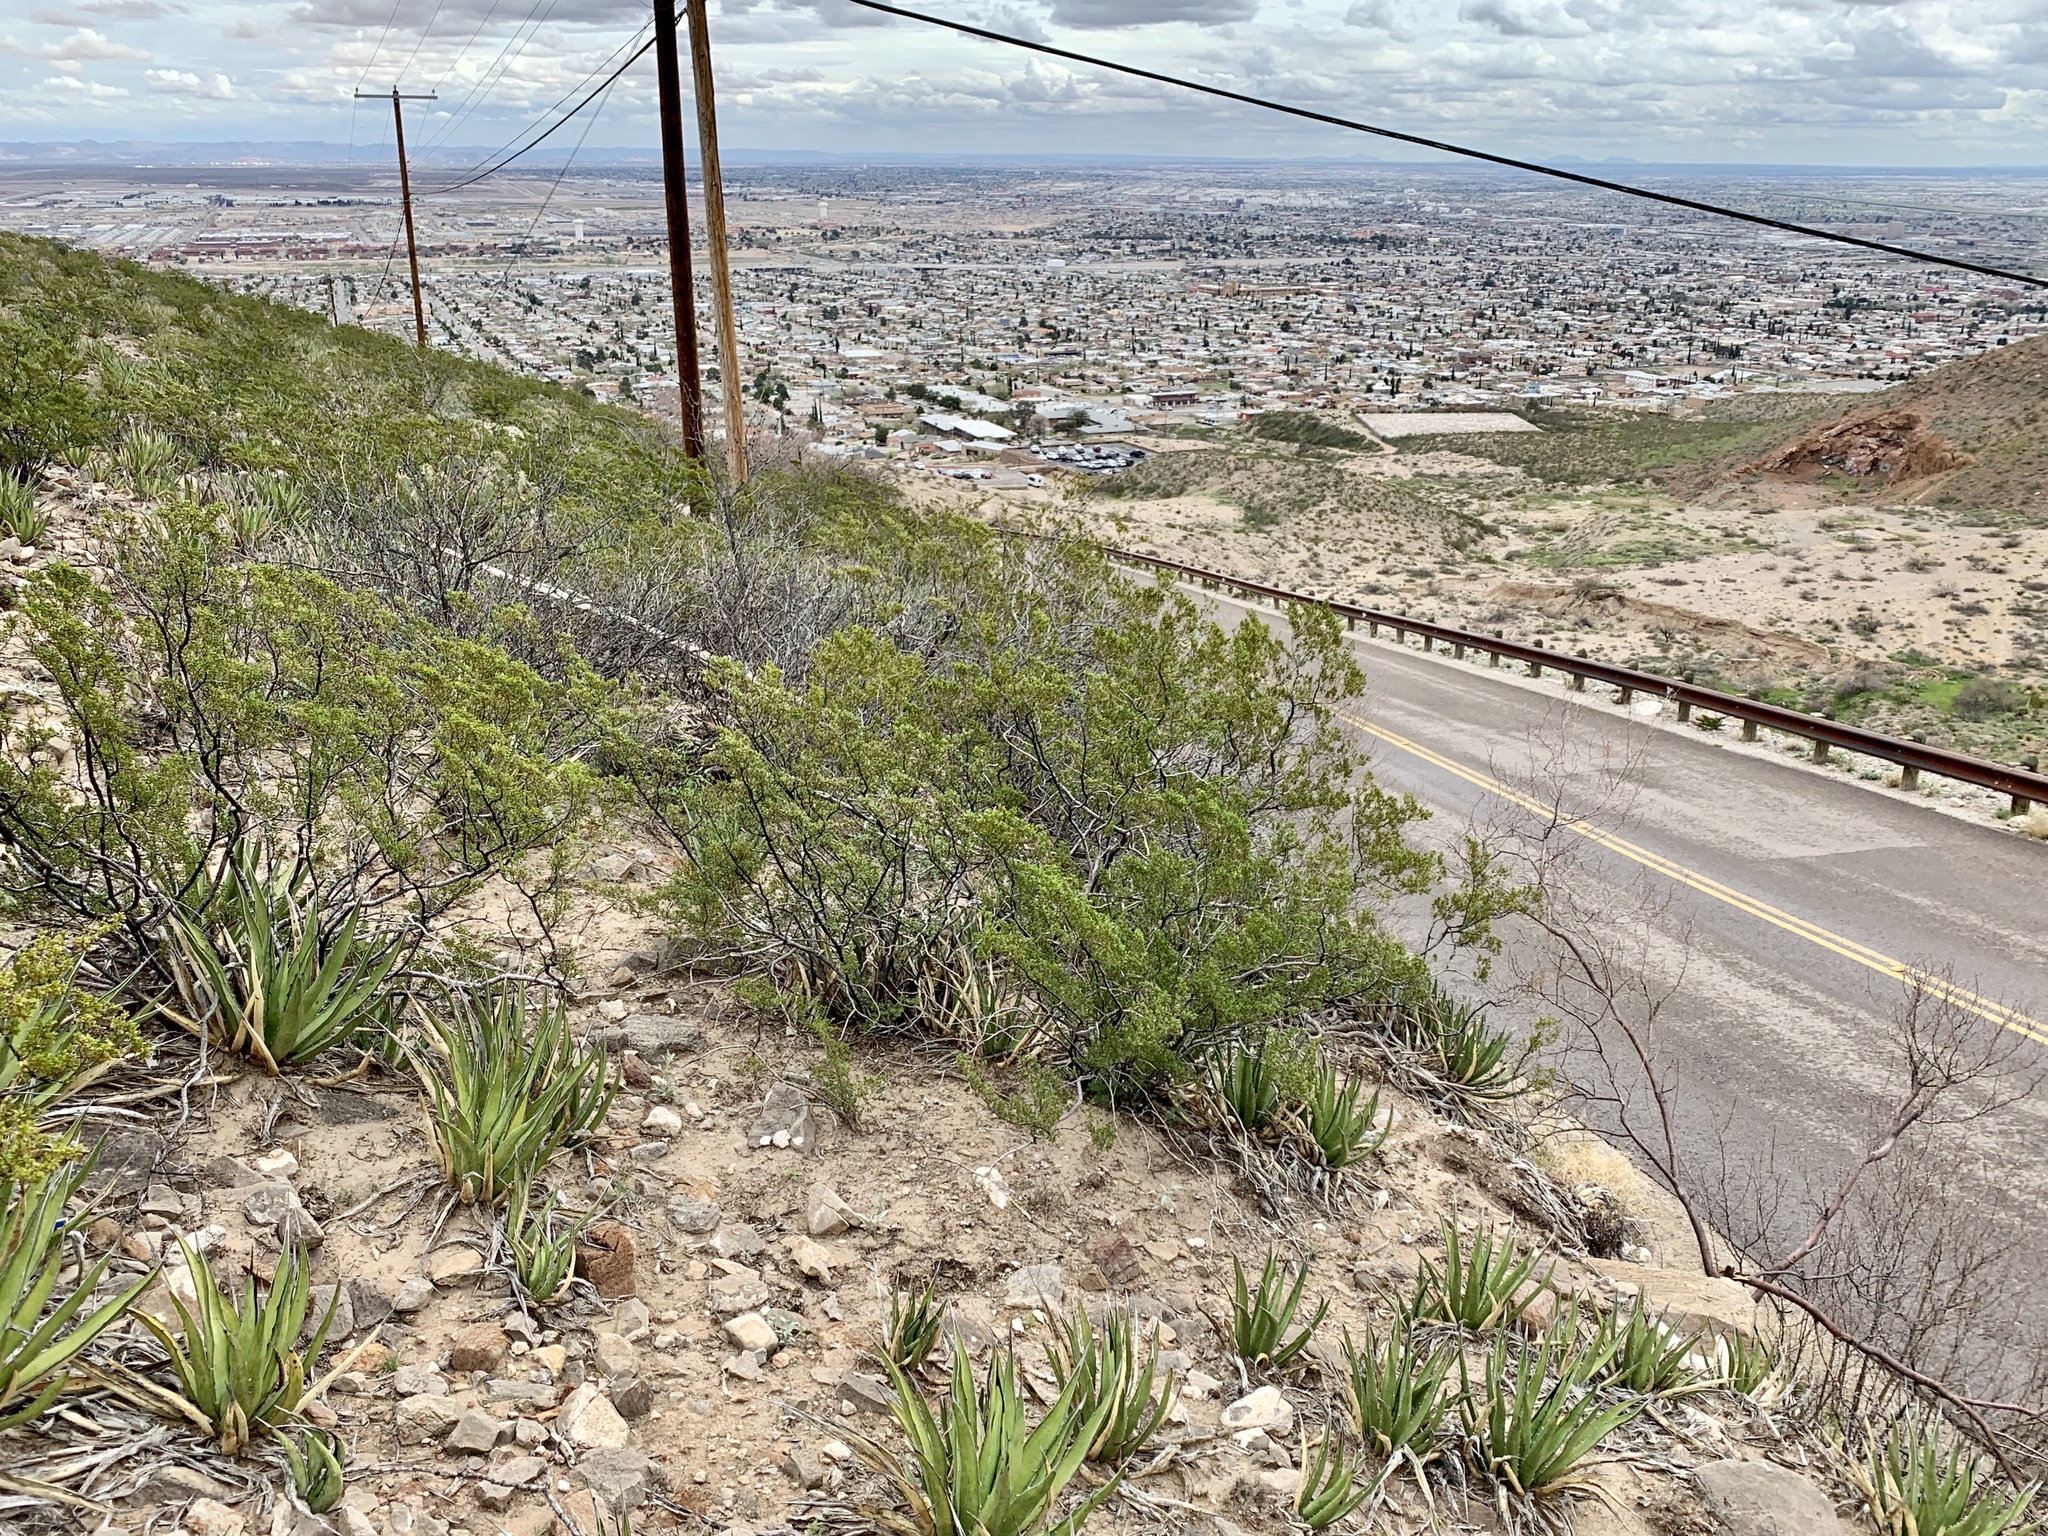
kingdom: Plantae
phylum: Tracheophyta
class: Magnoliopsida
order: Zygophyllales
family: Zygophyllaceae
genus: Larrea
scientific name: Larrea tridentata
